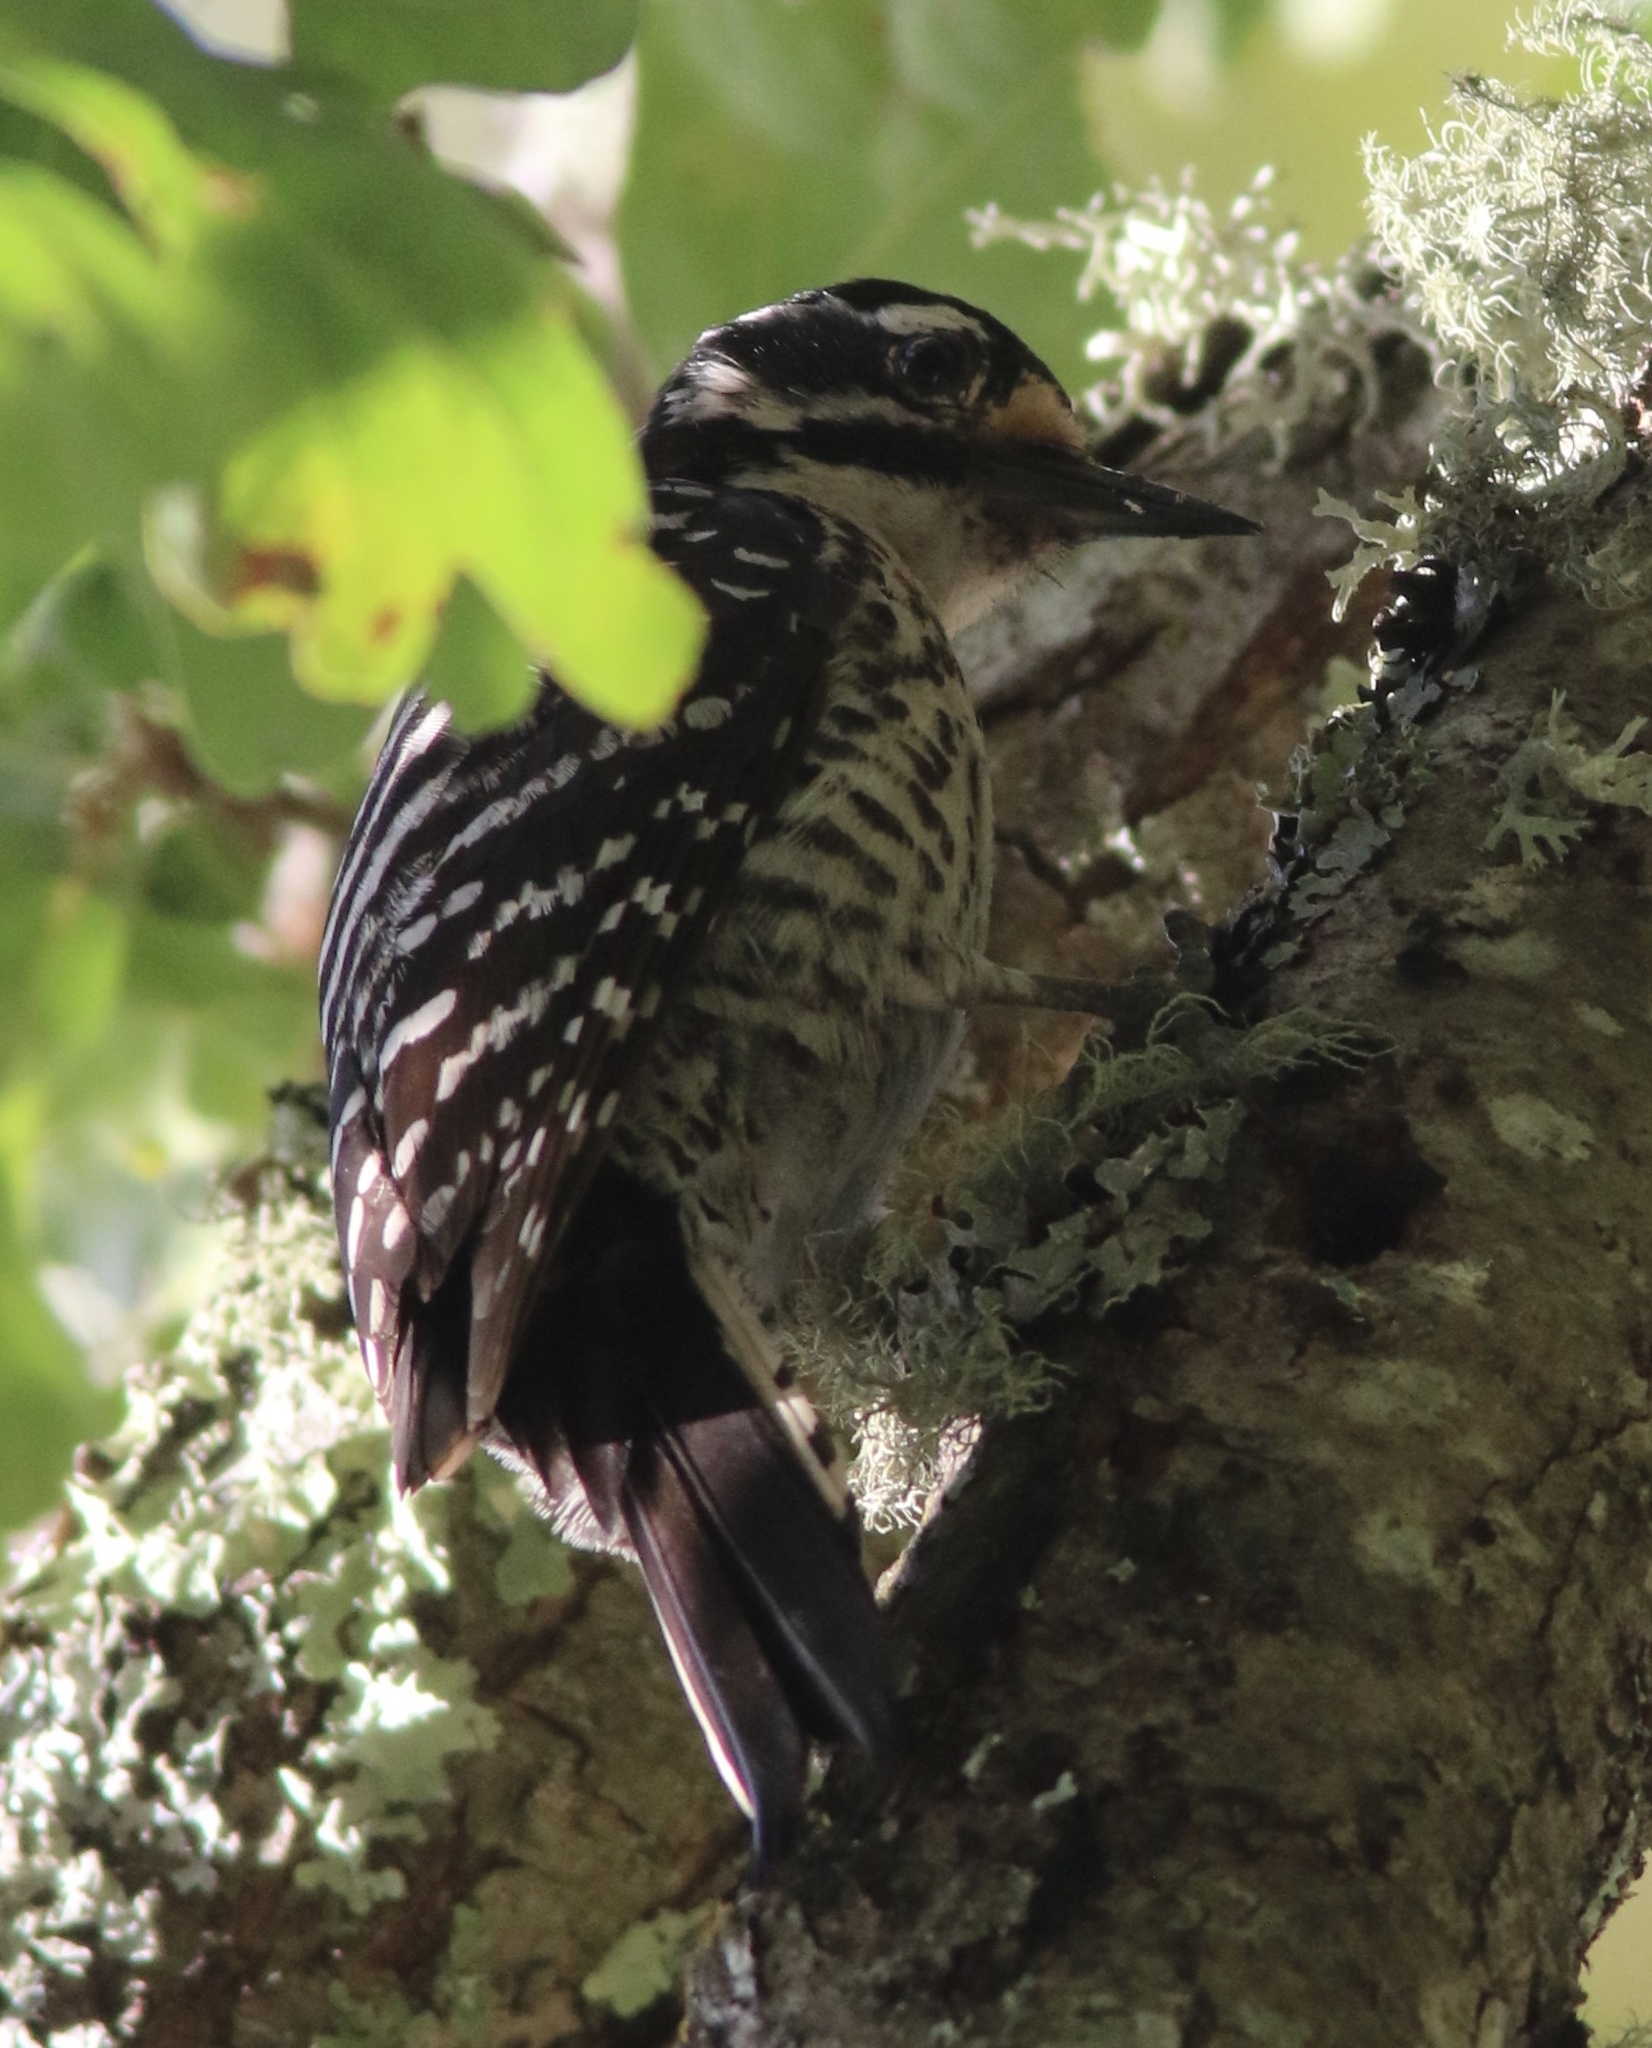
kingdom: Animalia
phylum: Chordata
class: Aves
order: Piciformes
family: Picidae
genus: Dryobates
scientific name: Dryobates nuttallii
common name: Nuttall's woodpecker
